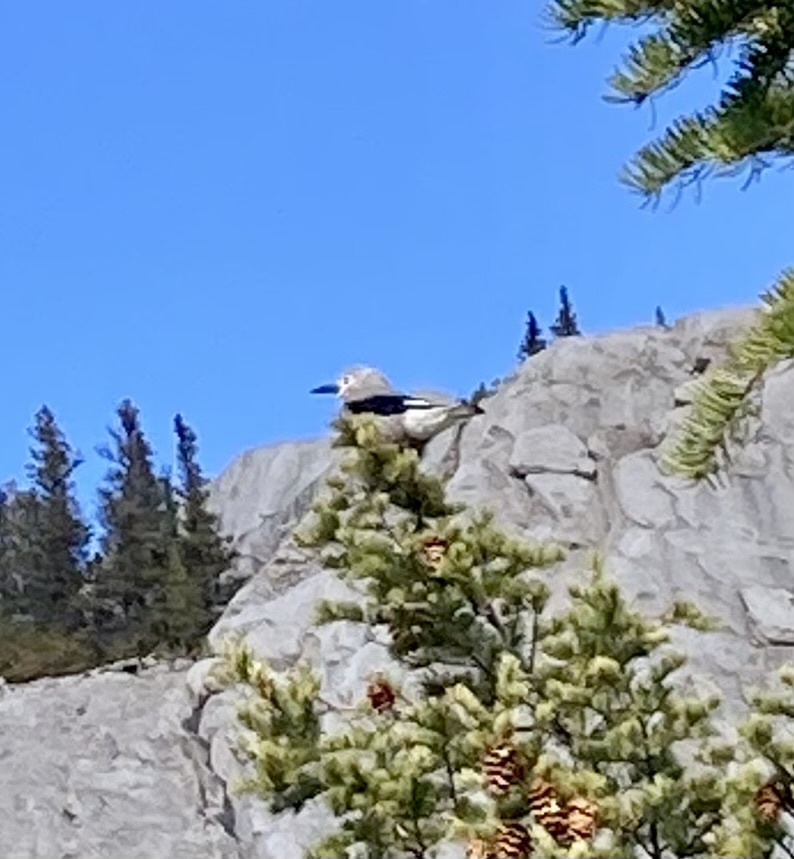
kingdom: Animalia
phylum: Chordata
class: Aves
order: Passeriformes
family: Corvidae
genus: Nucifraga
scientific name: Nucifraga columbiana
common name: Clark's nutcracker
